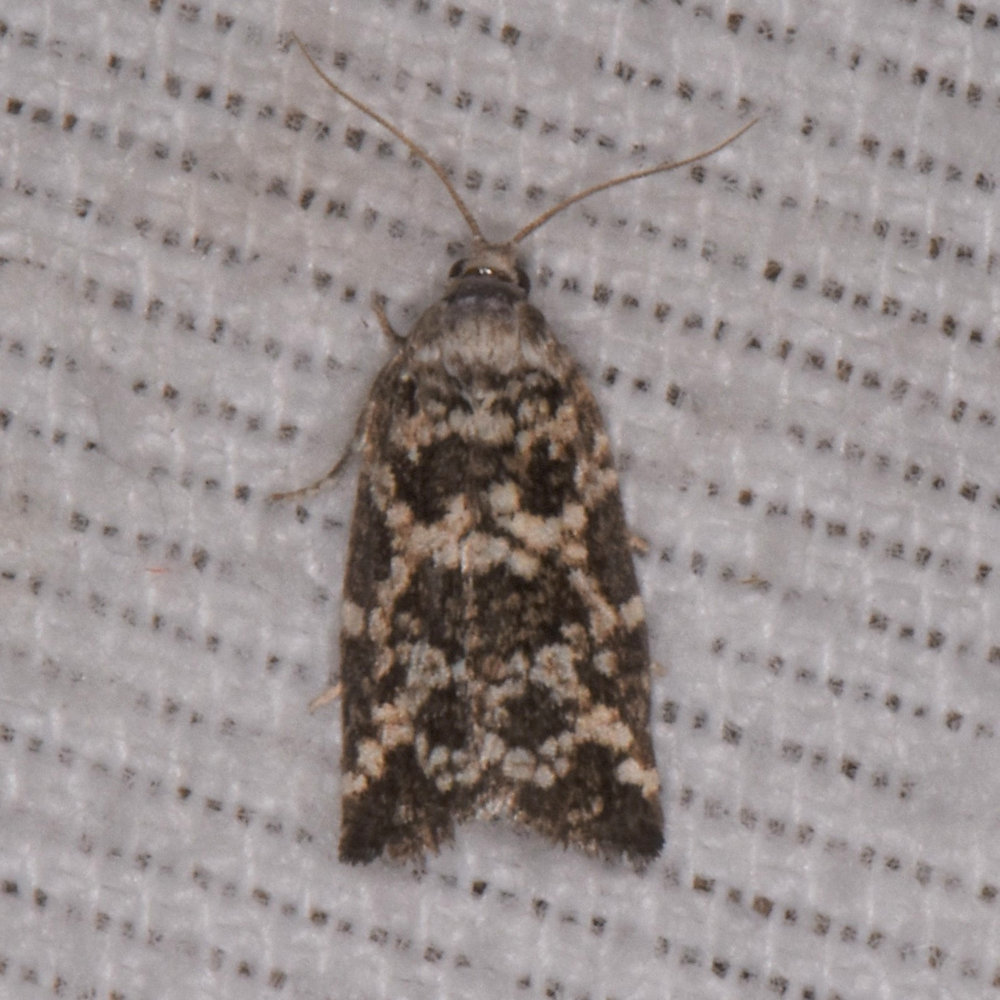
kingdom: Animalia
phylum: Arthropoda
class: Insecta
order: Lepidoptera
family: Tortricidae
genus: Archips
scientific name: Archips packardiana
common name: Spring spruce needle moth
